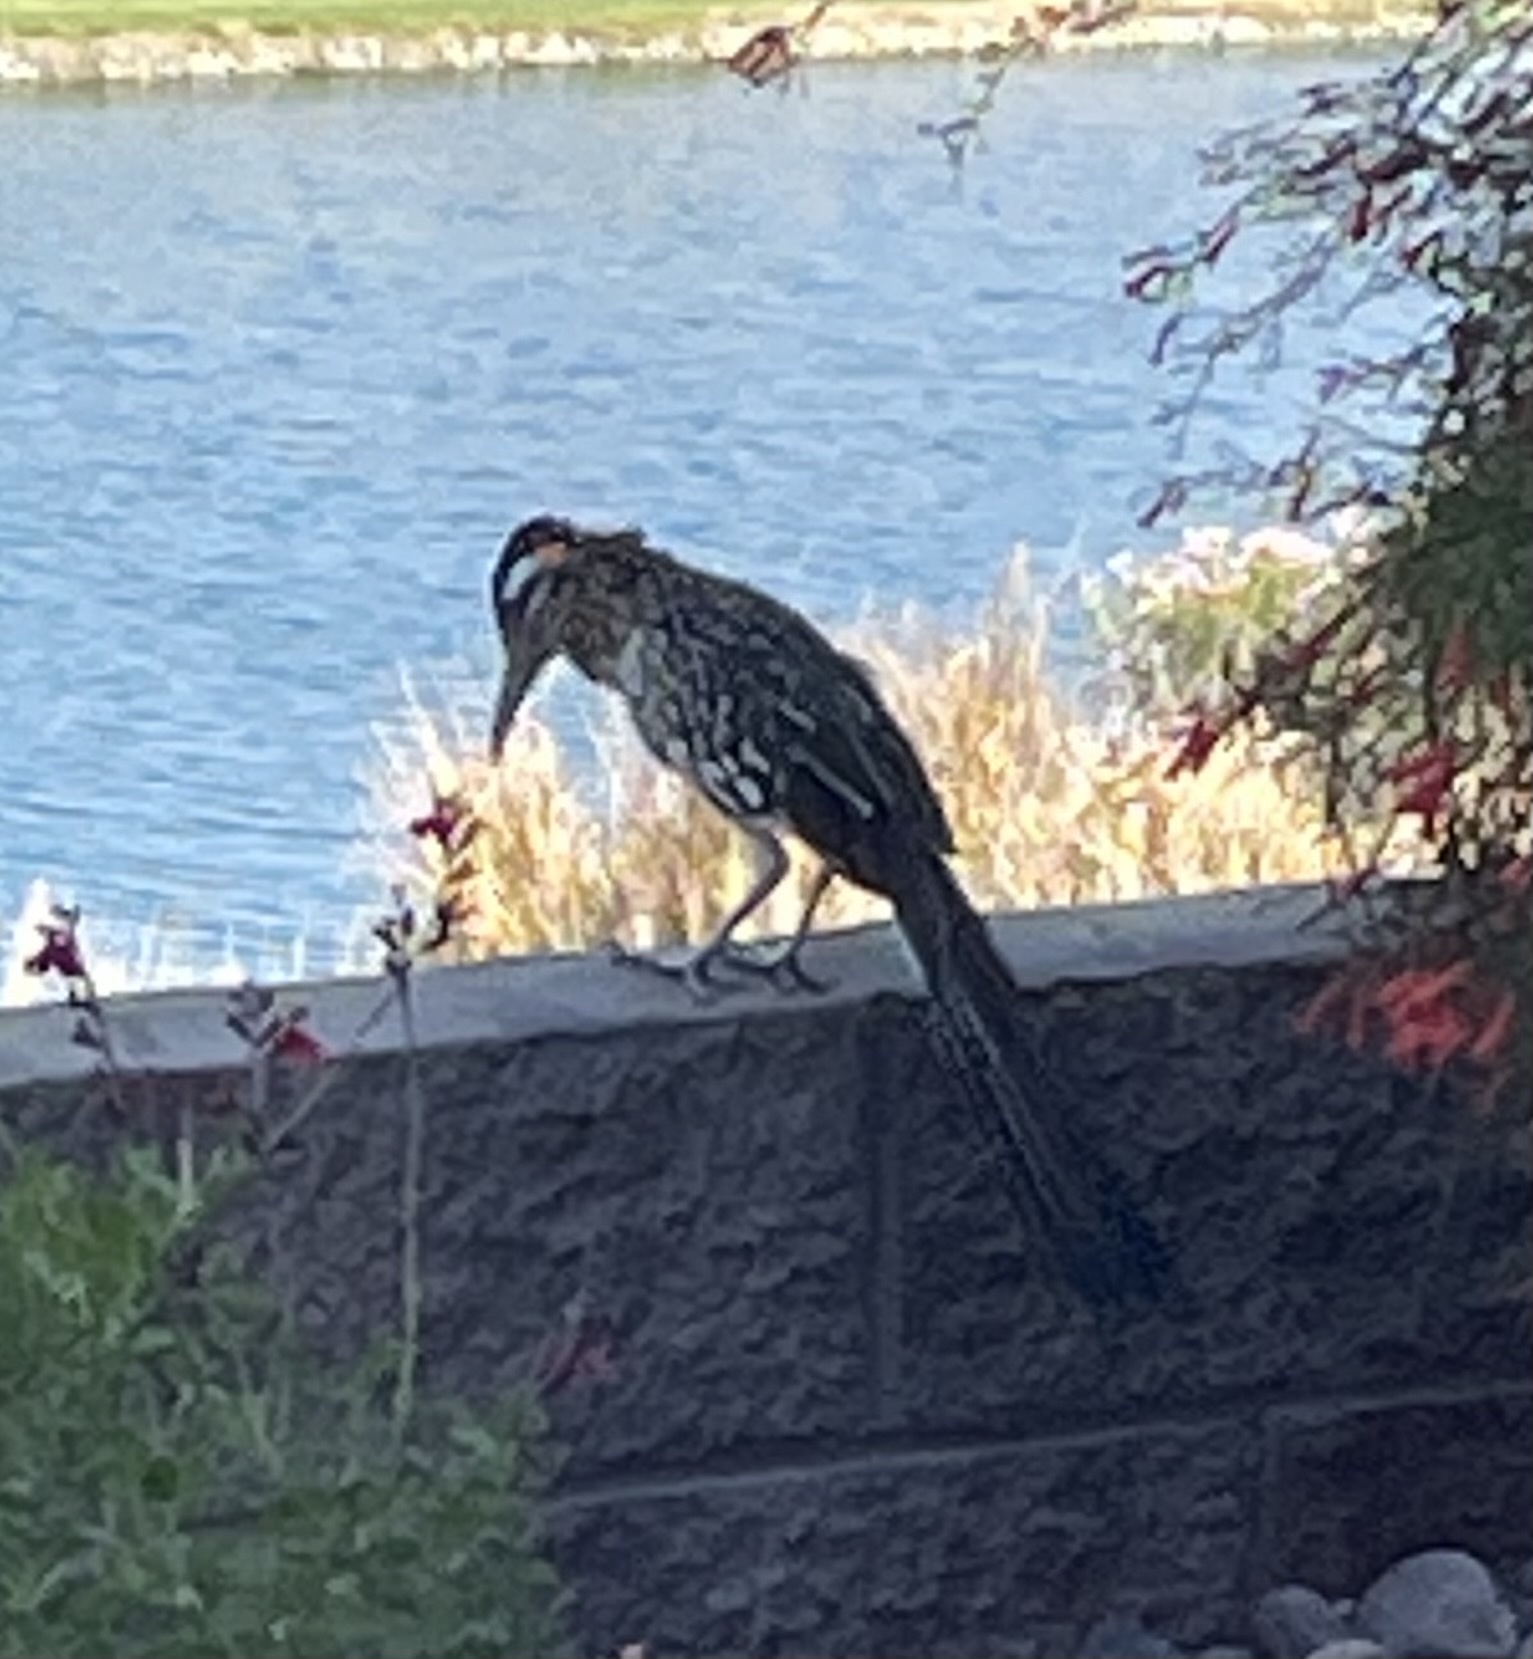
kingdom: Animalia
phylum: Chordata
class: Aves
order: Cuculiformes
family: Cuculidae
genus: Geococcyx
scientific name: Geococcyx californianus
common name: Greater roadrunner
